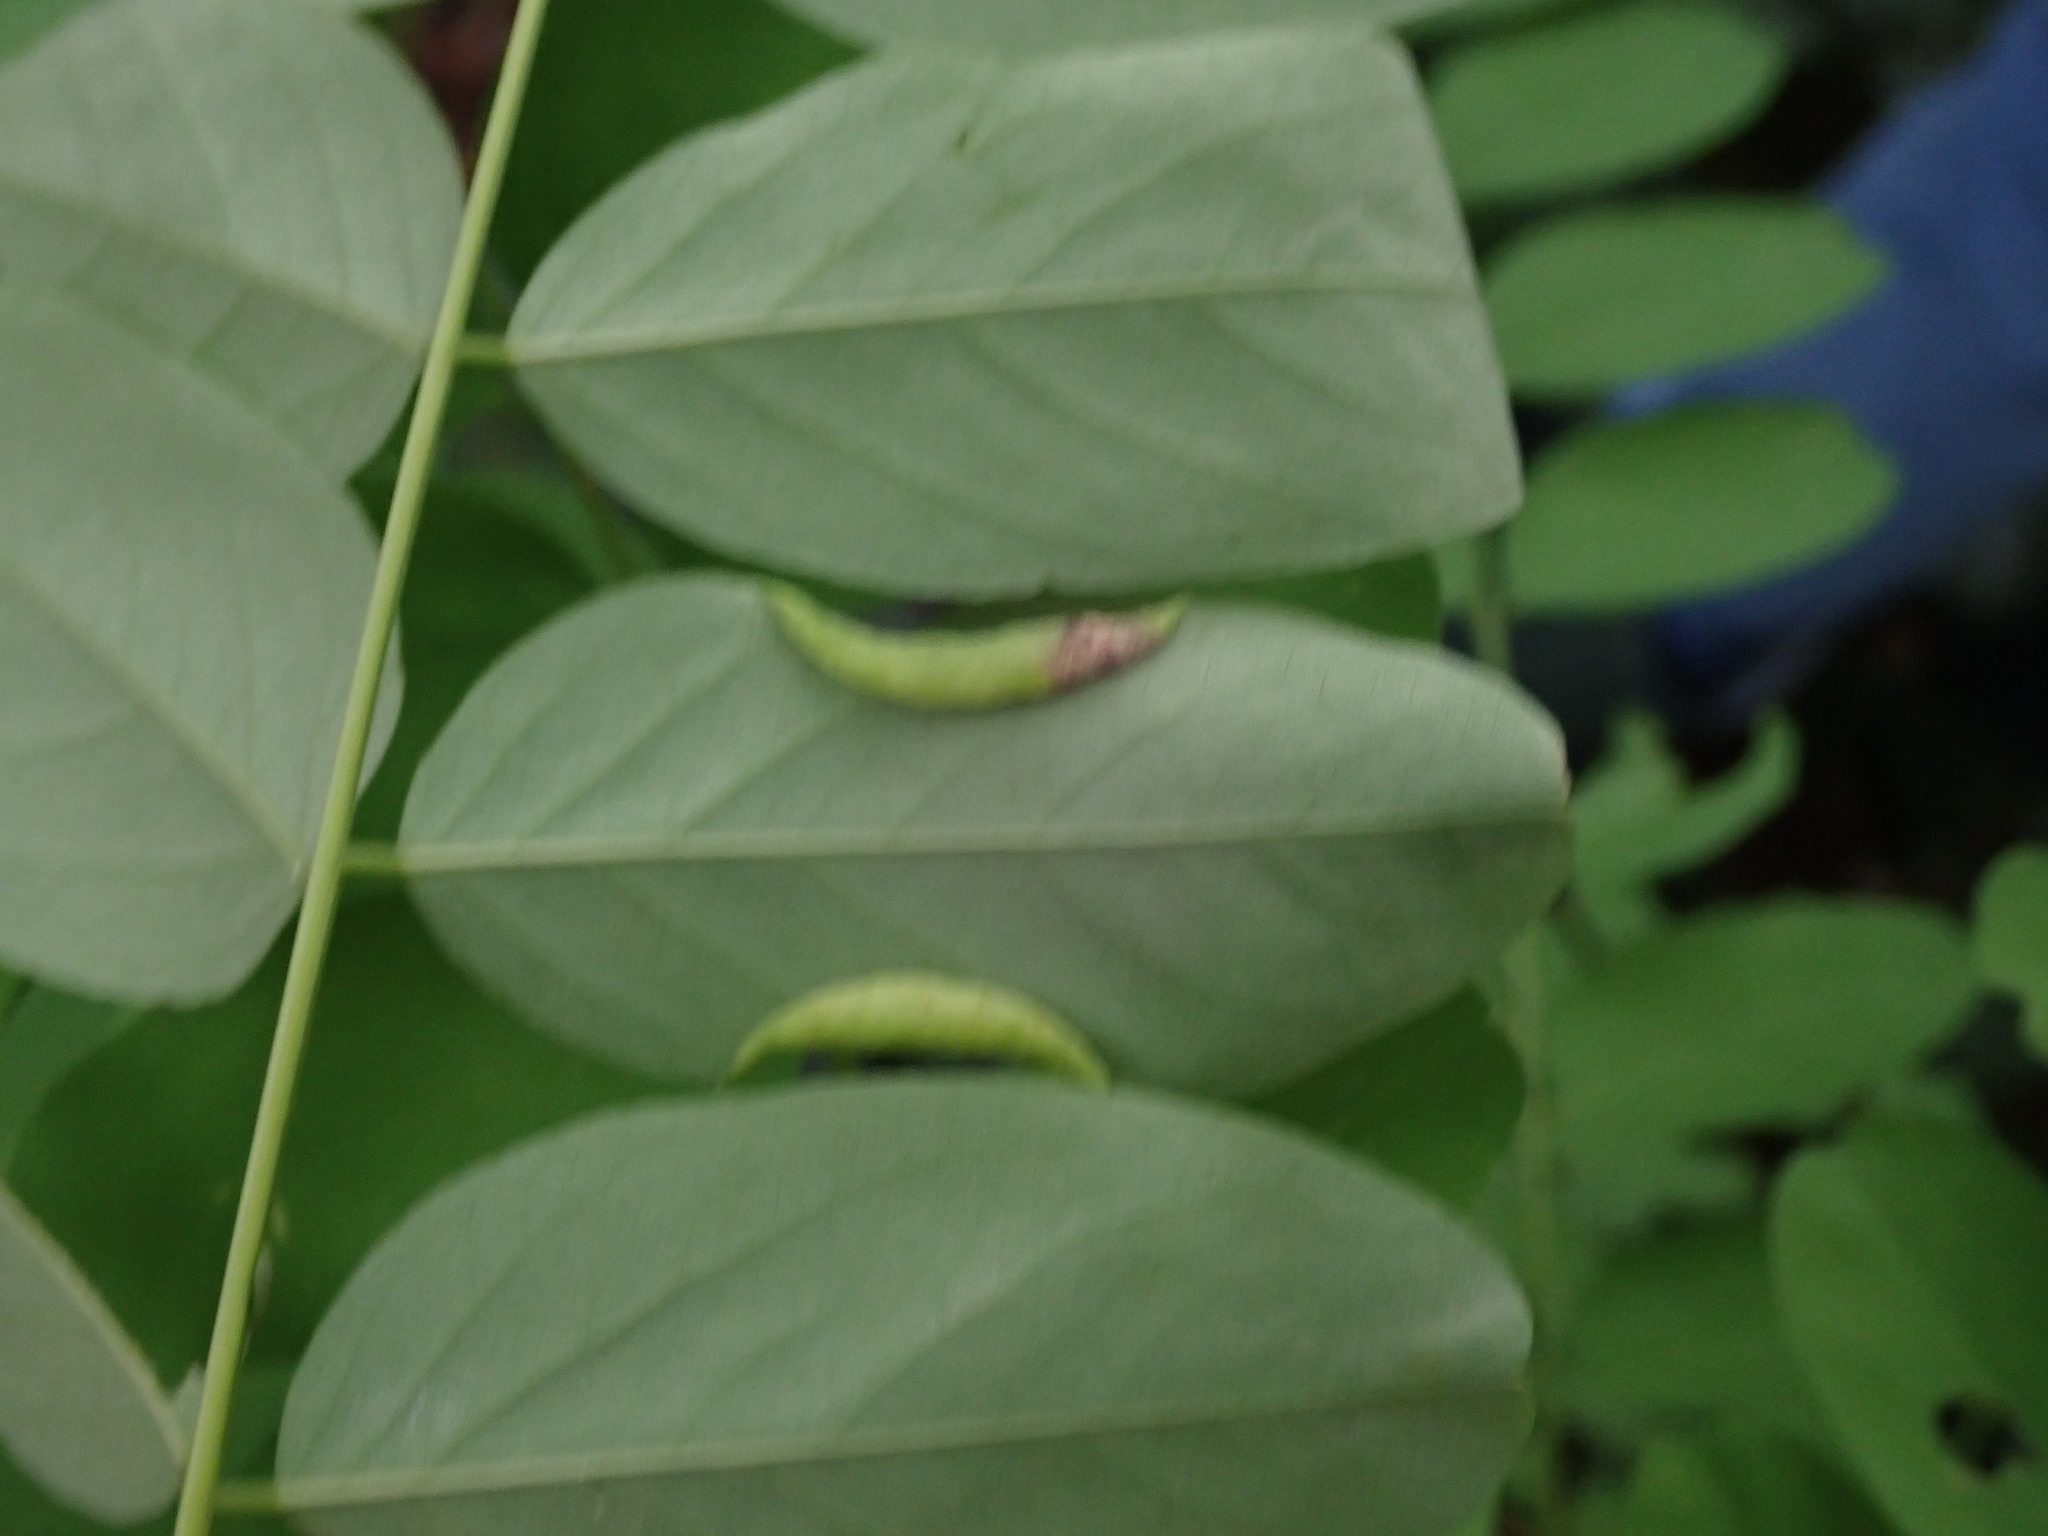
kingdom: Animalia
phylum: Arthropoda
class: Insecta
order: Diptera
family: Cecidomyiidae
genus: Obolodiplosis
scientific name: Obolodiplosis robiniae
